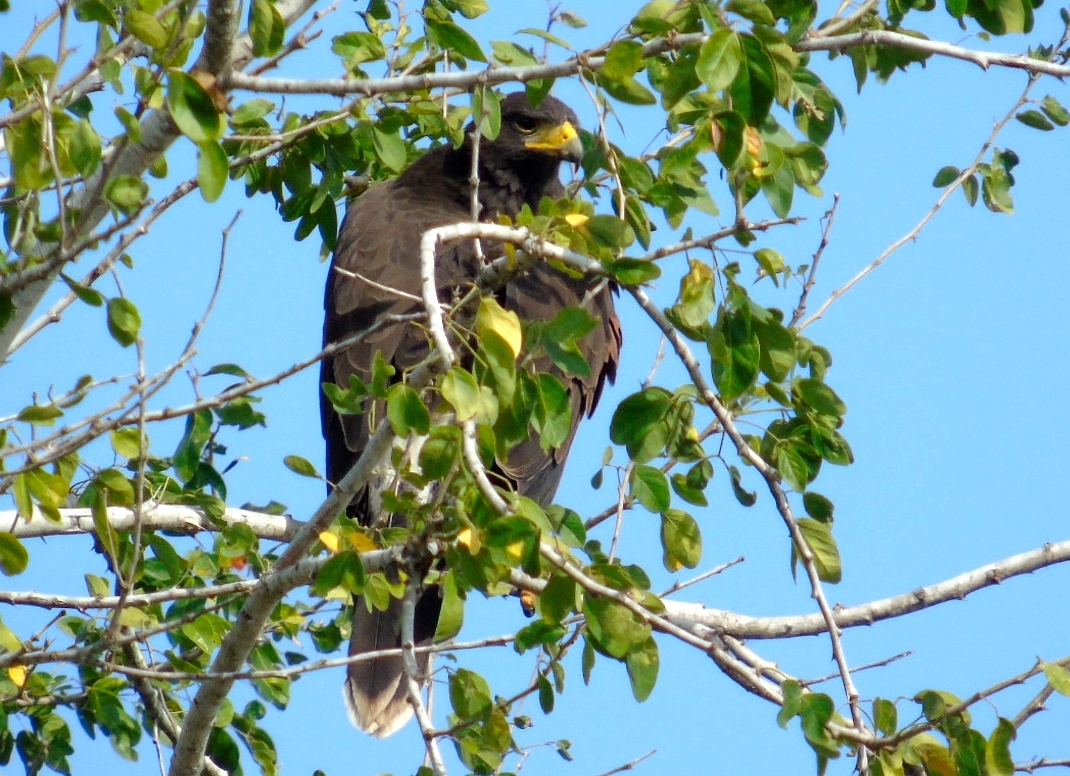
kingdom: Animalia
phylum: Chordata
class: Aves
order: Accipitriformes
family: Accipitridae
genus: Parabuteo
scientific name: Parabuteo unicinctus
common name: Harris's hawk
